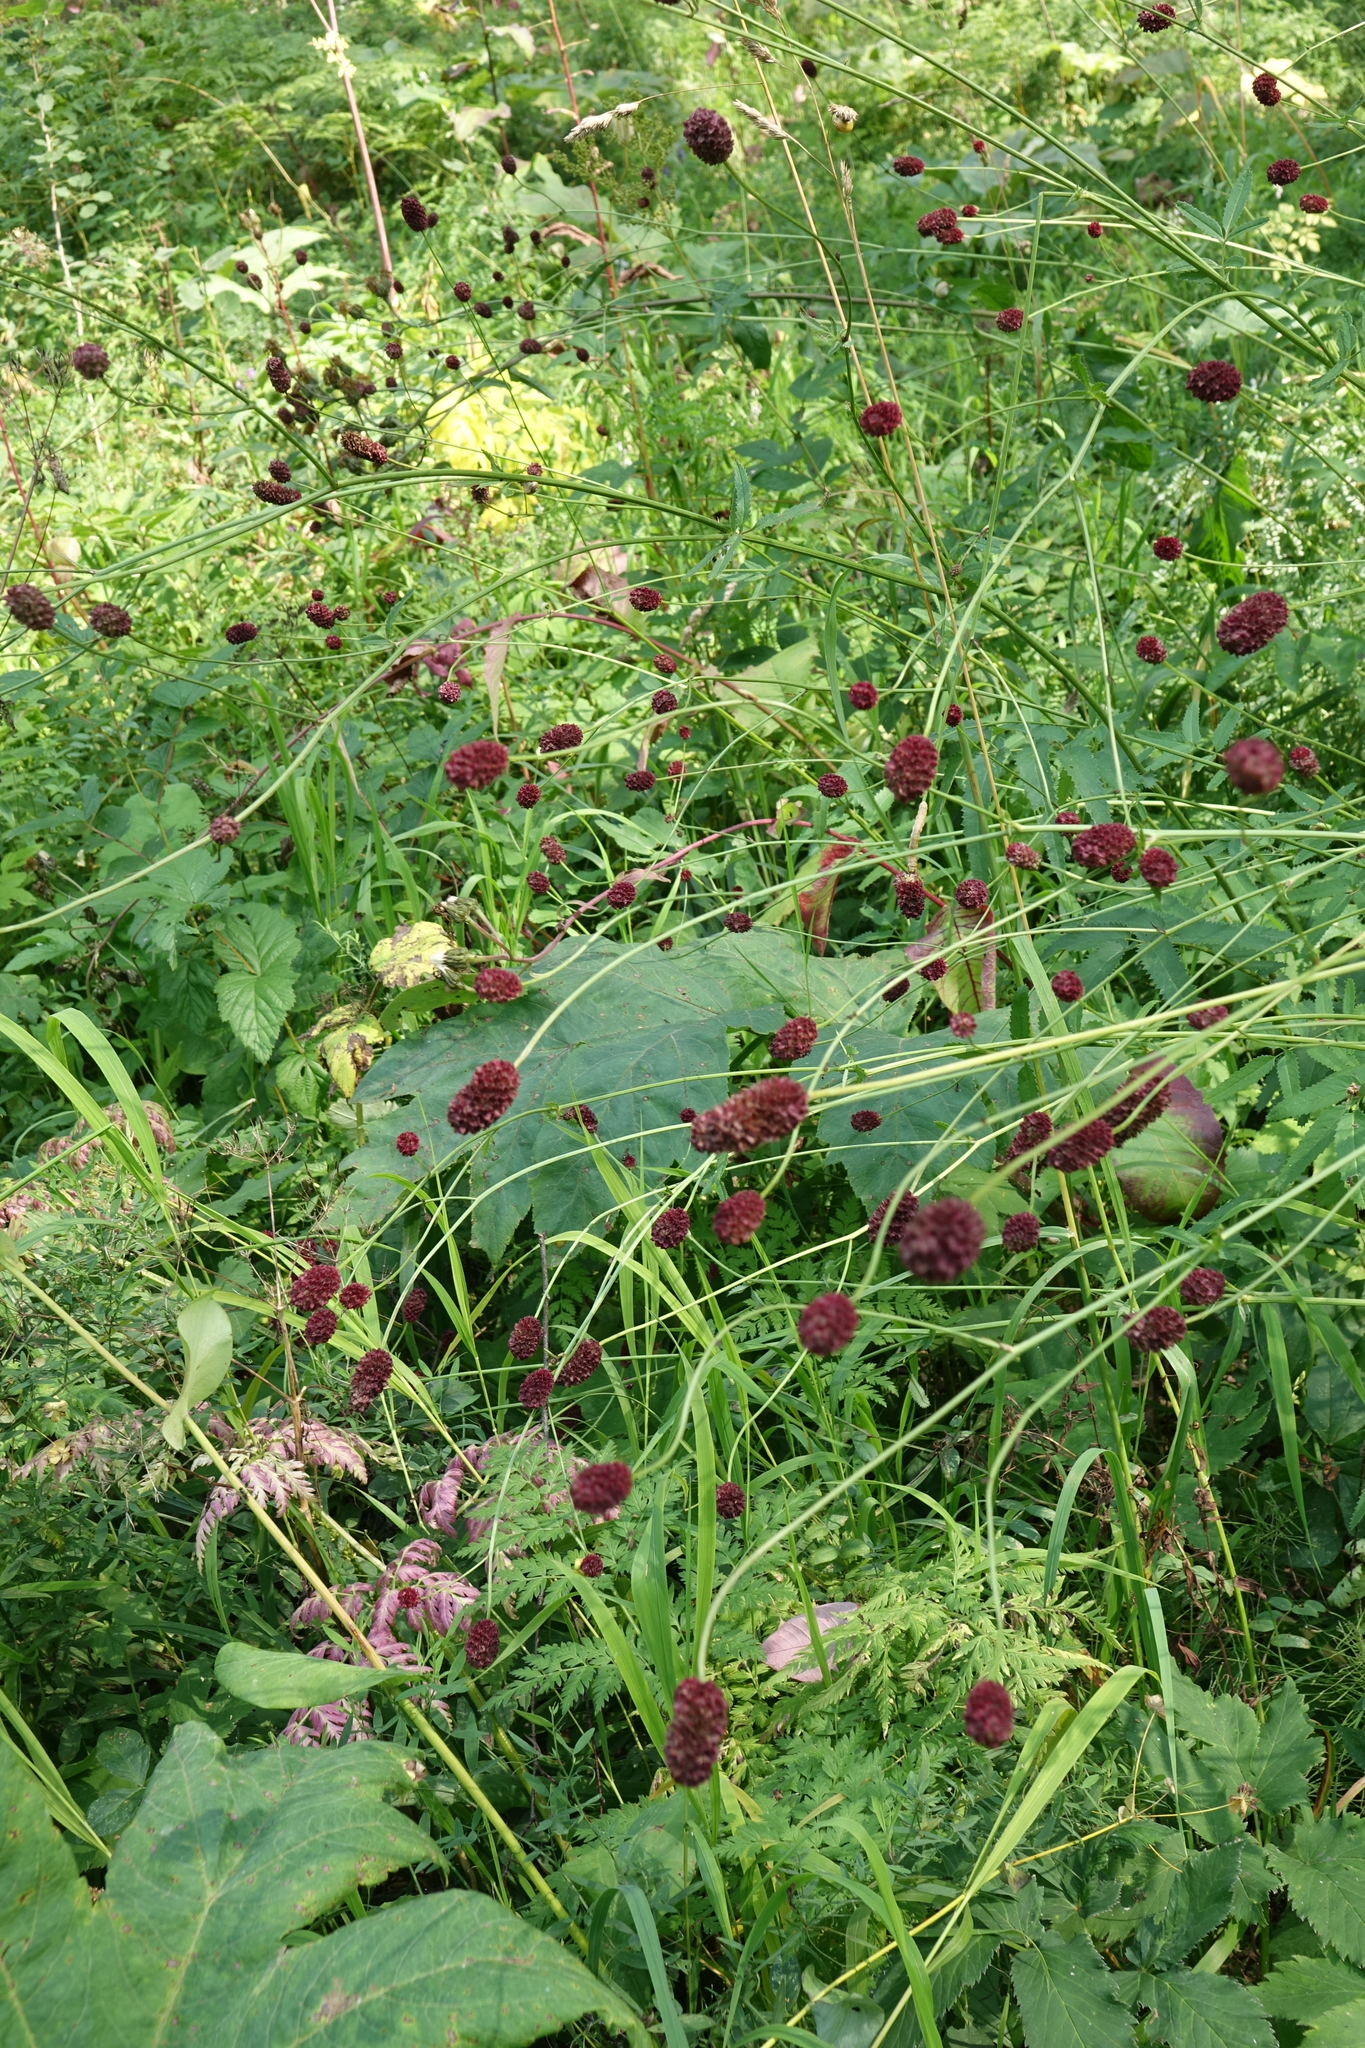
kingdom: Plantae
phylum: Tracheophyta
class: Magnoliopsida
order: Rosales
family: Rosaceae
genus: Sanguisorba
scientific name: Sanguisorba officinalis
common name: Great burnet
